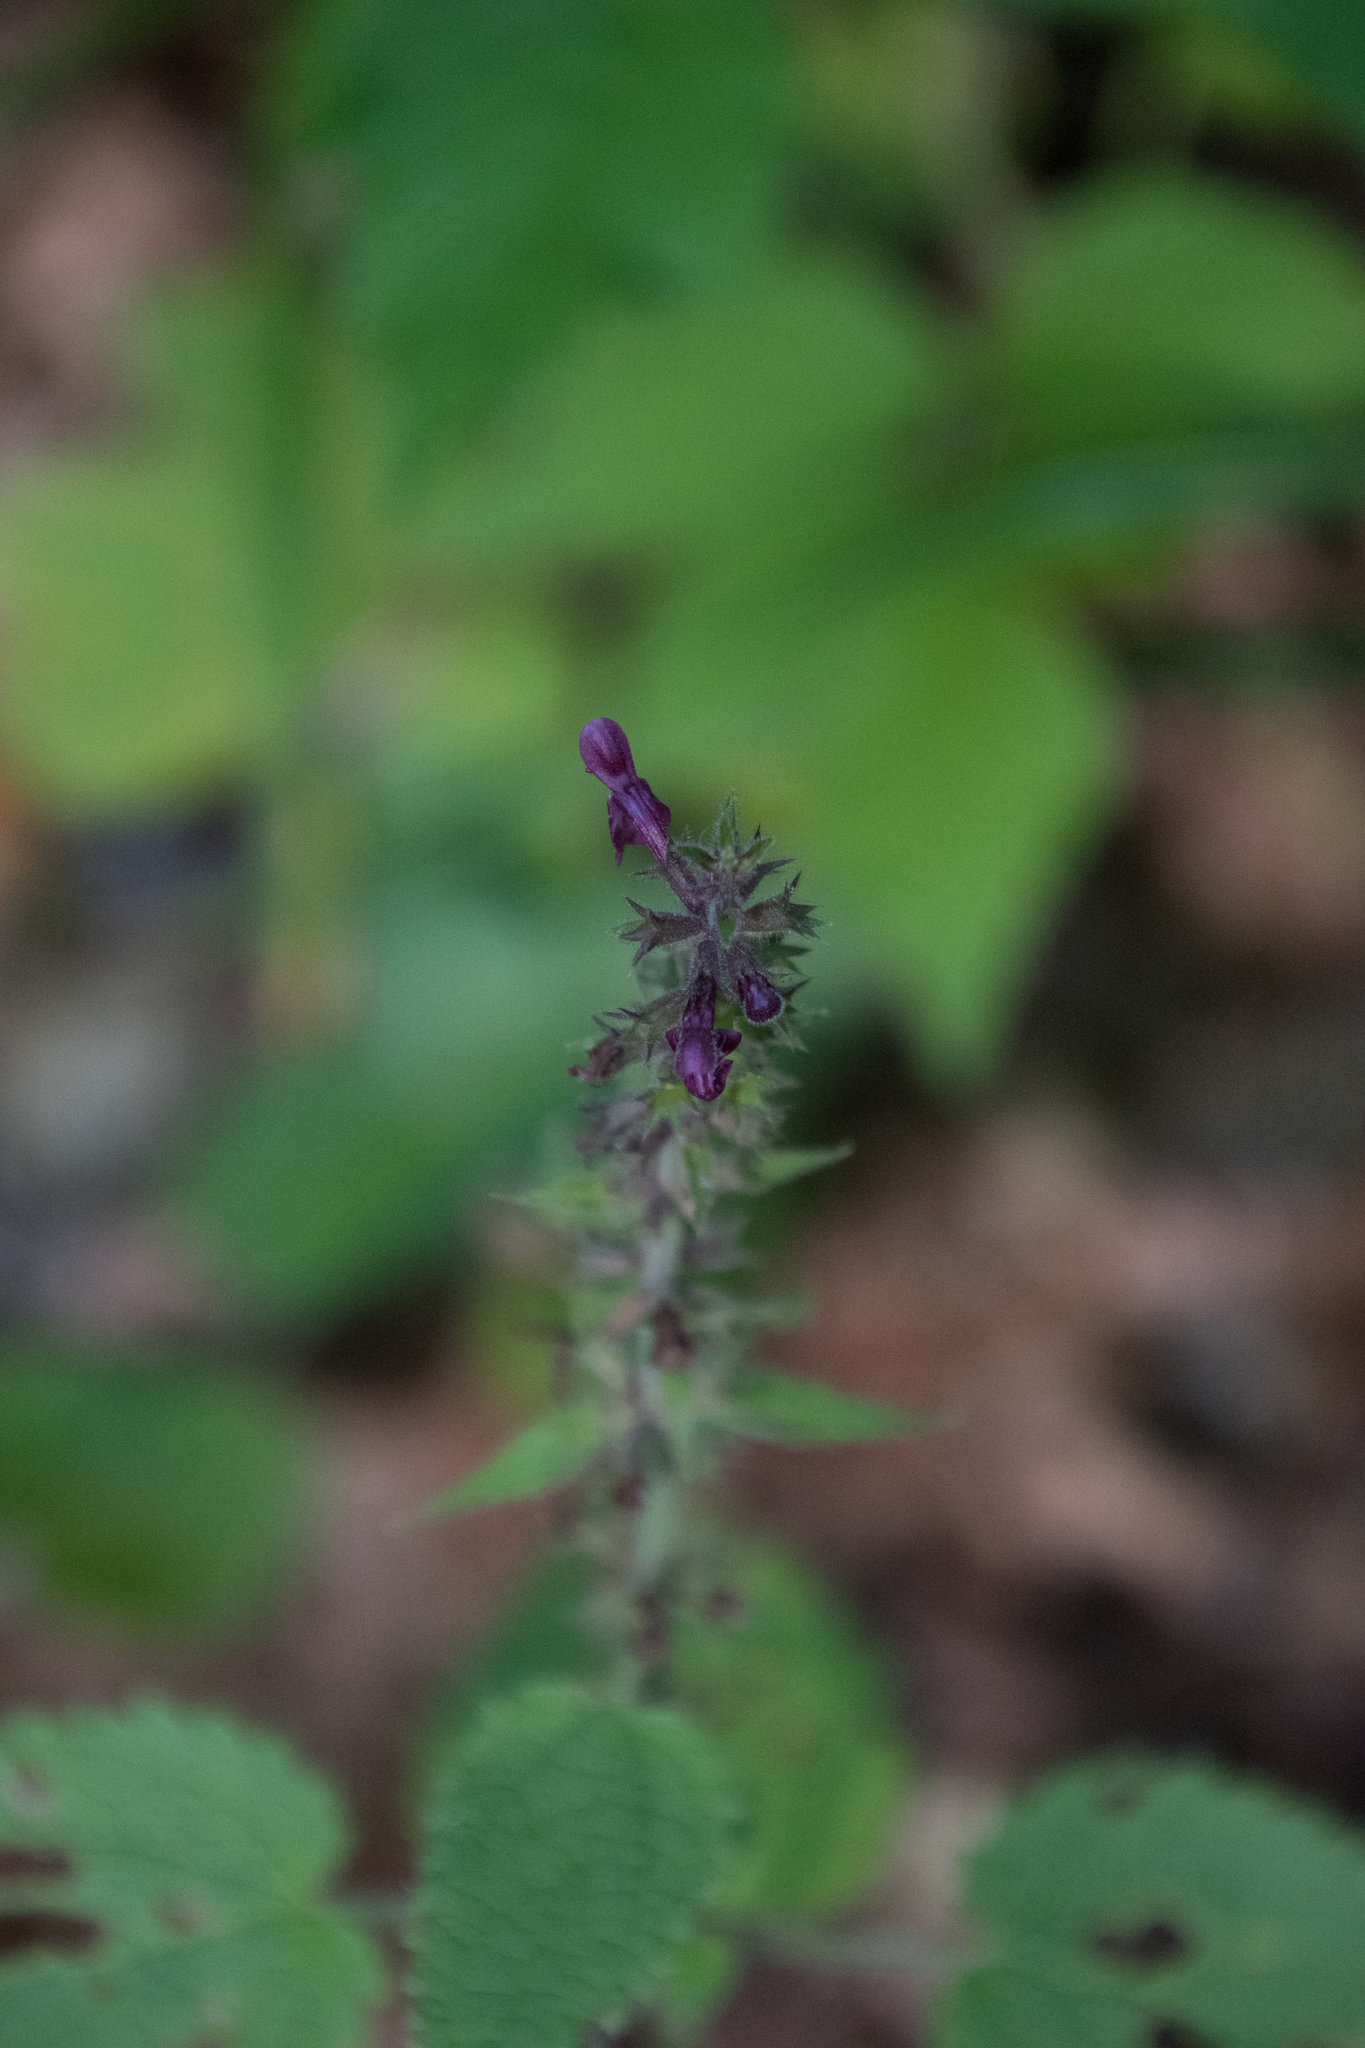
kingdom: Plantae
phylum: Tracheophyta
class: Magnoliopsida
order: Lamiales
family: Lamiaceae
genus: Stachys
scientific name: Stachys sylvatica
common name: Hedge woundwort
